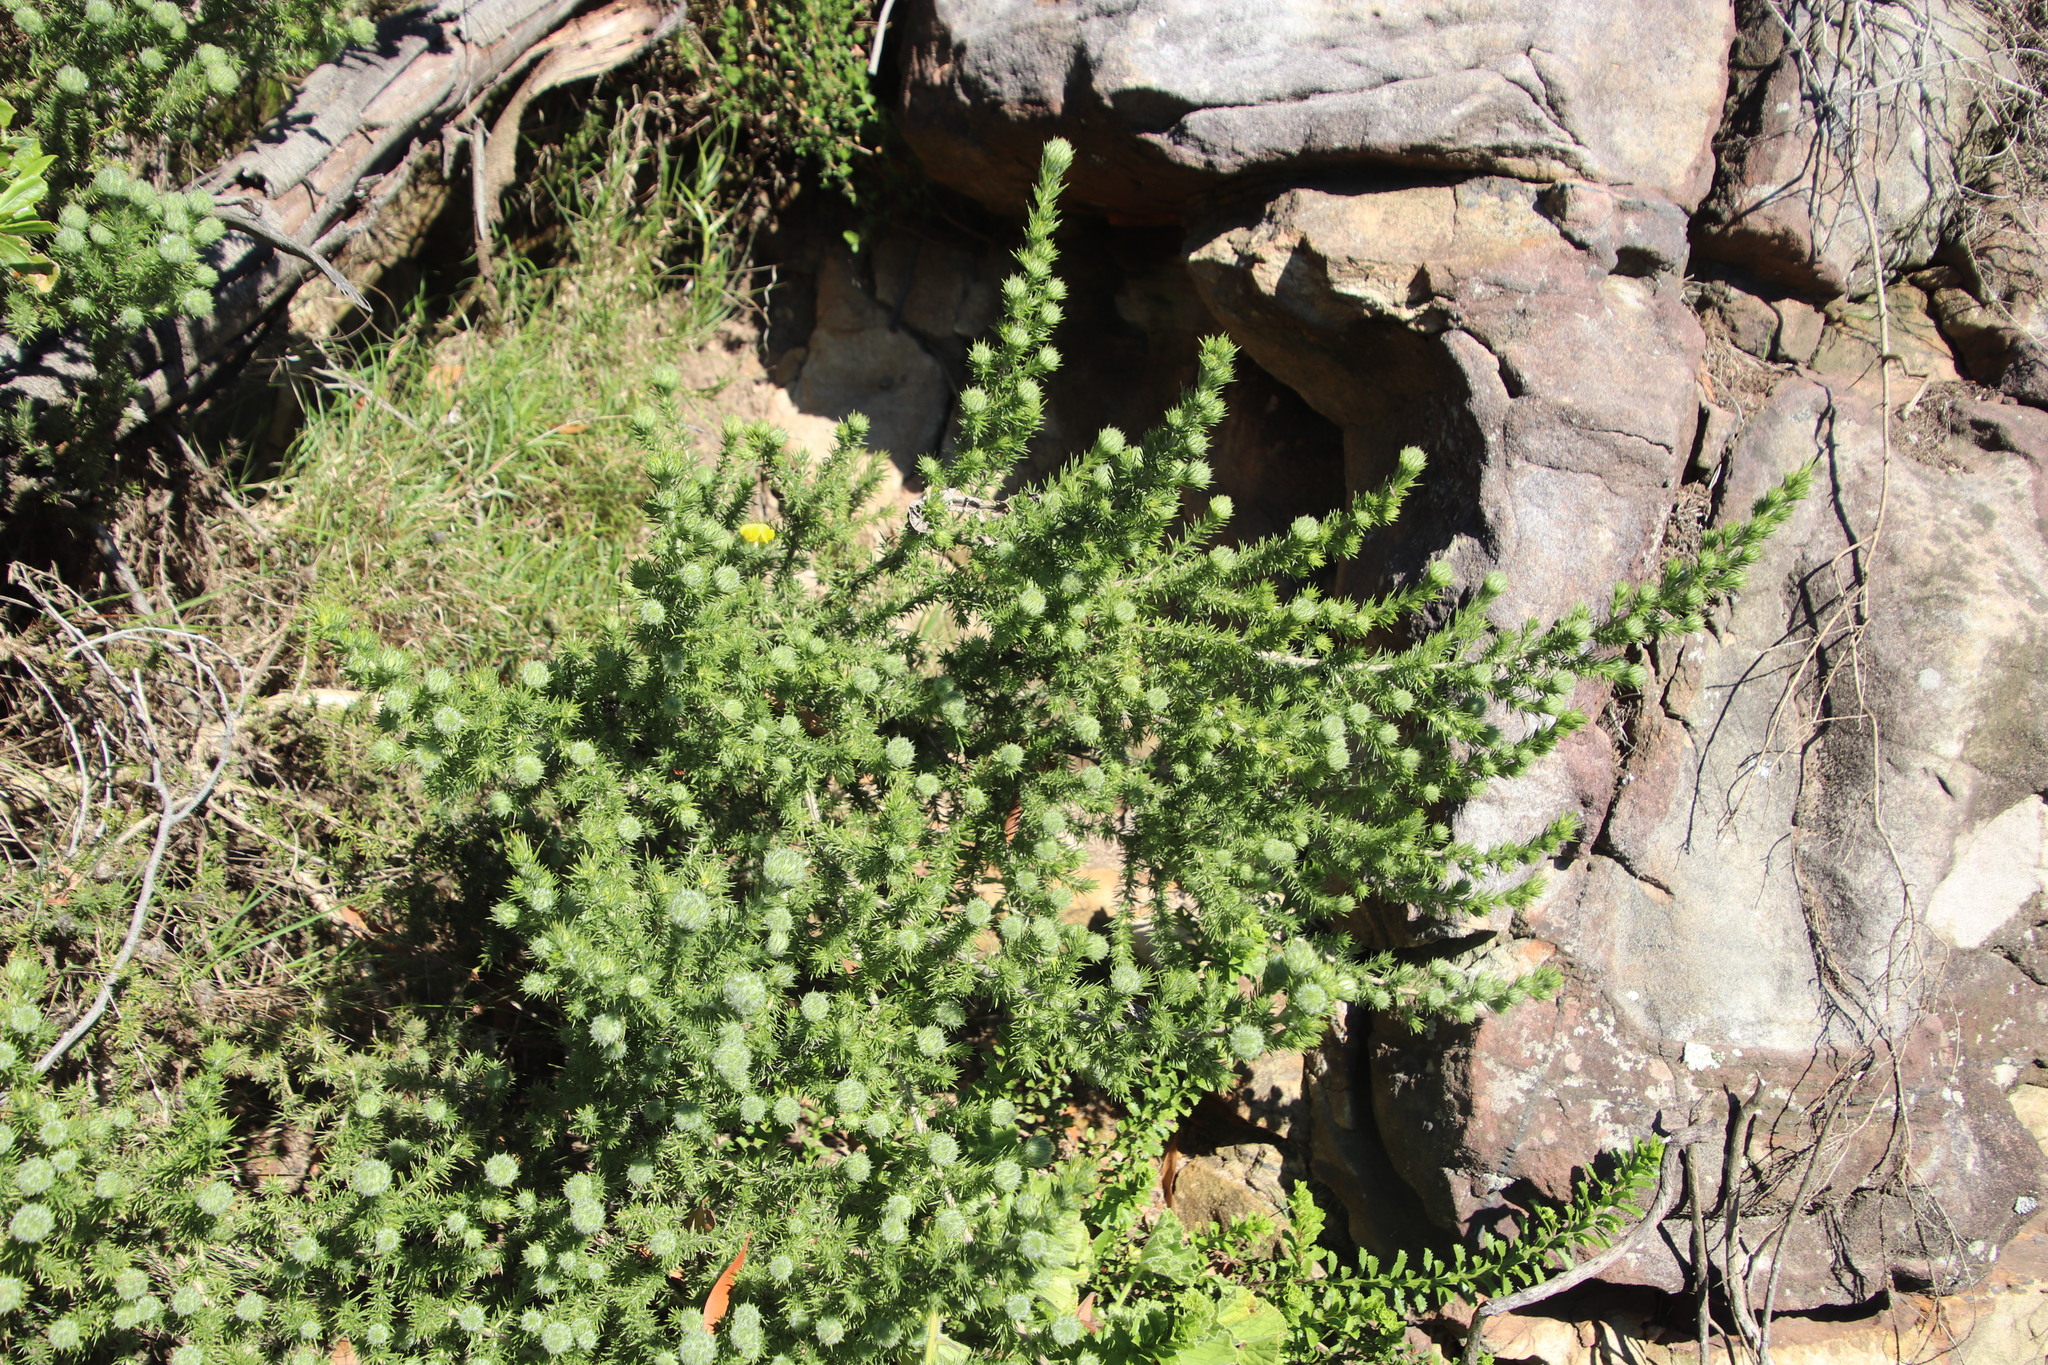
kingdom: Plantae
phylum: Tracheophyta
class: Magnoliopsida
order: Fabales
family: Fabaceae
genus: Aspalathus
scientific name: Aspalathus chenopoda
